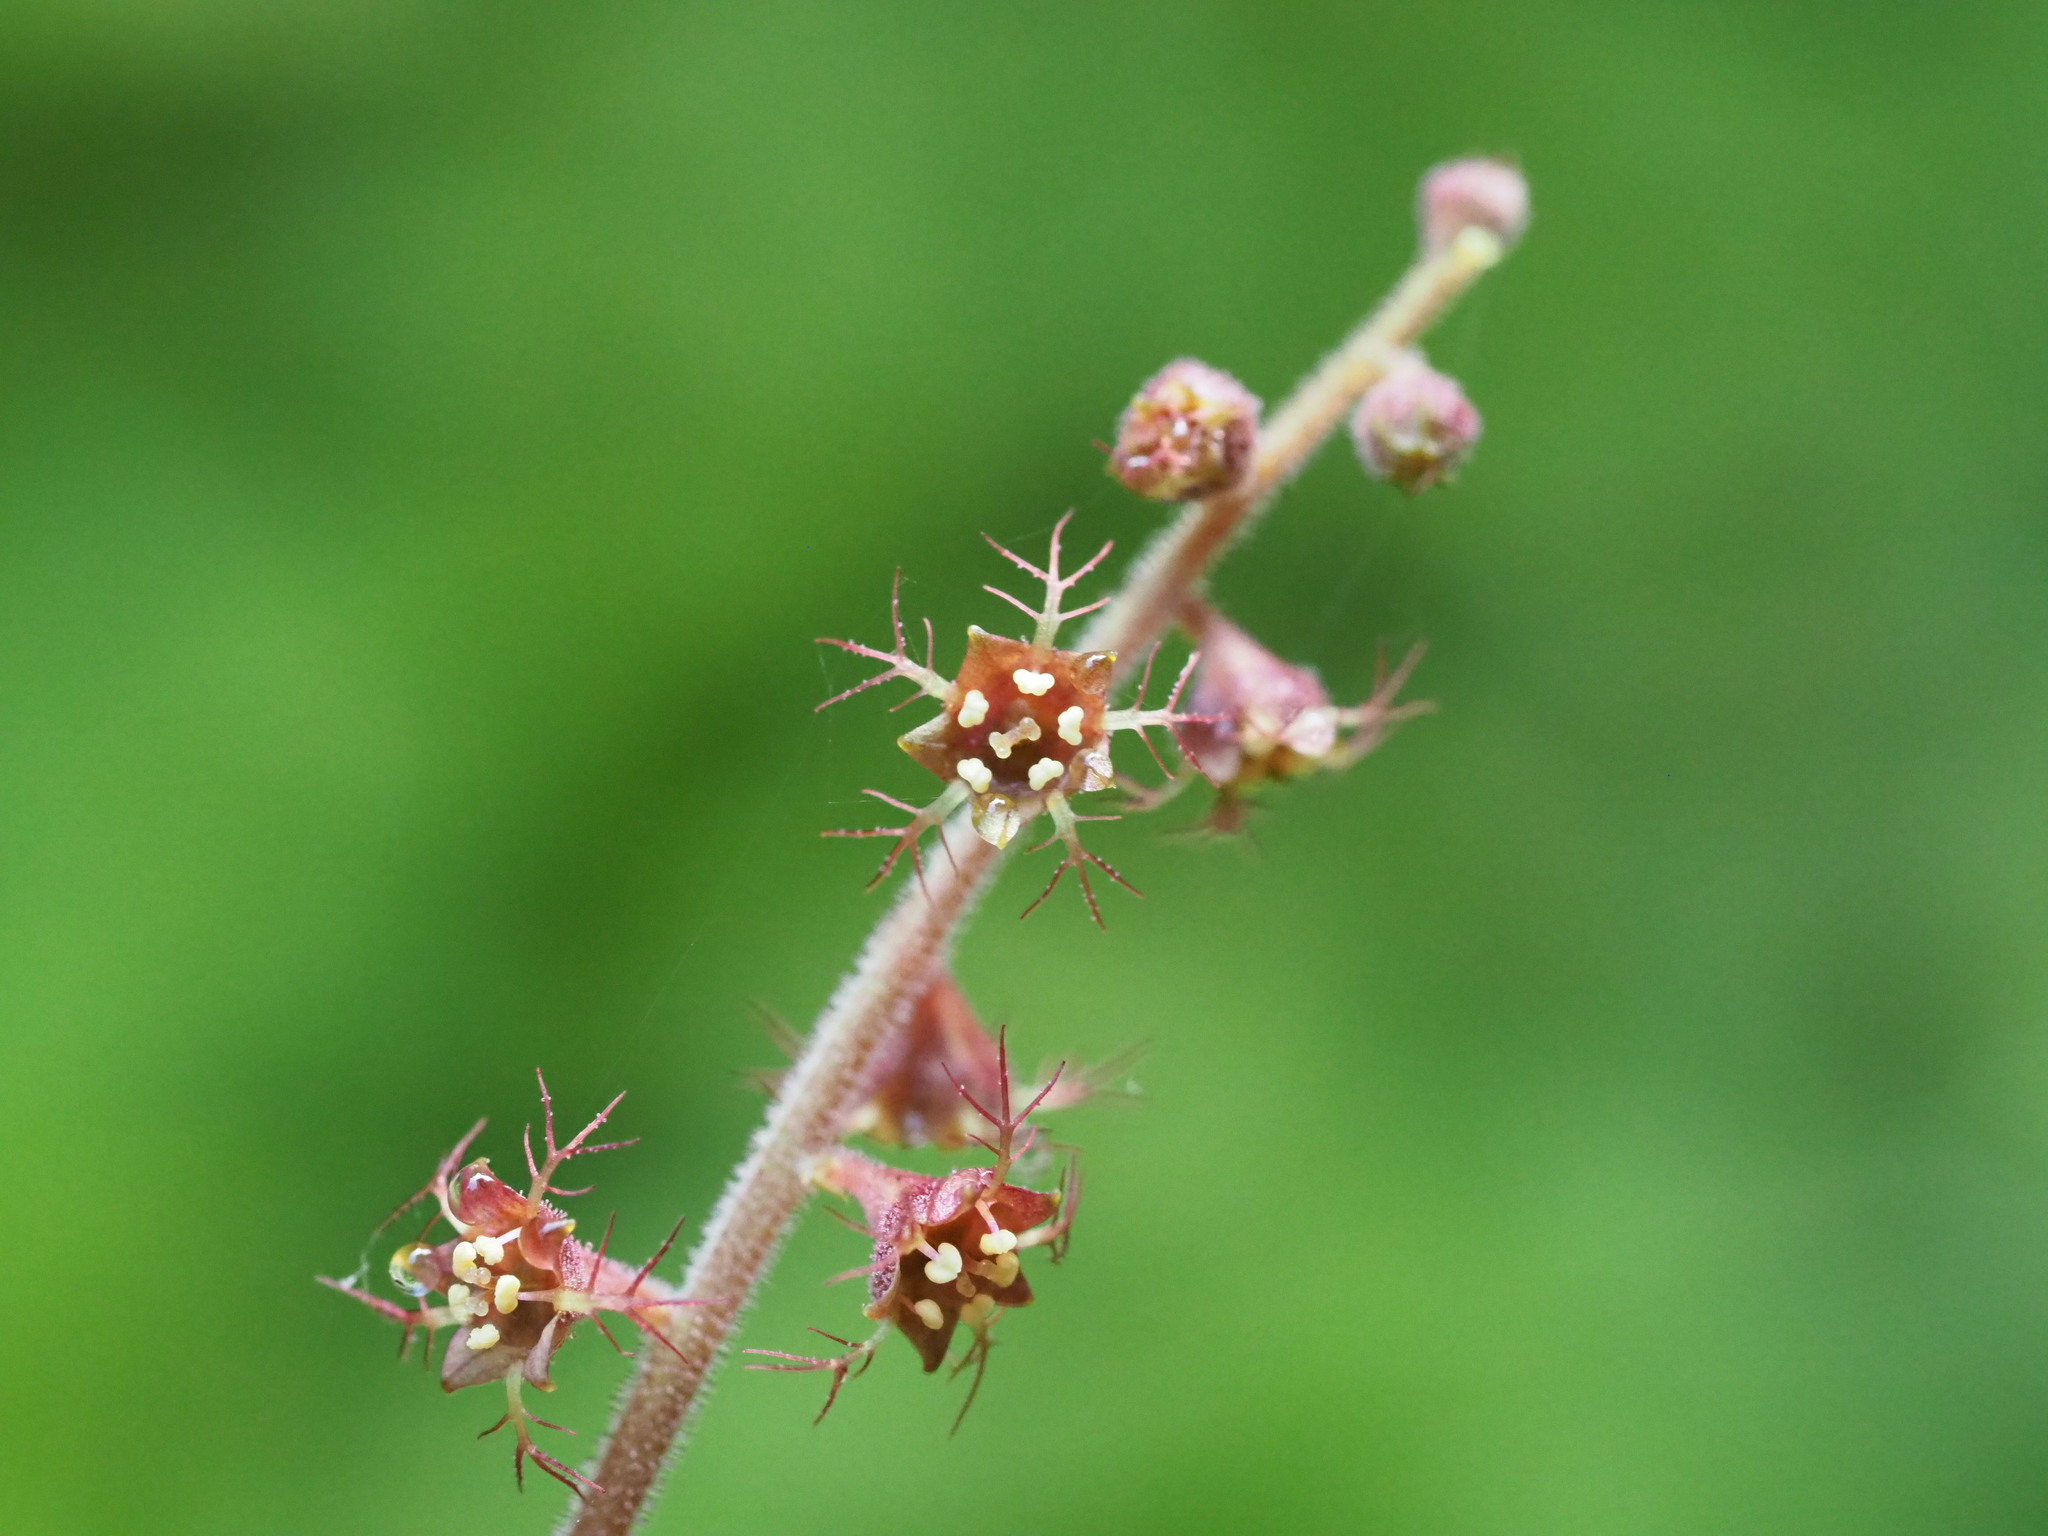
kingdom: Plantae
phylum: Tracheophyta
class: Magnoliopsida
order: Saxifragales
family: Saxifragaceae
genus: Asimitellaria
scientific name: Asimitellaria formosana
